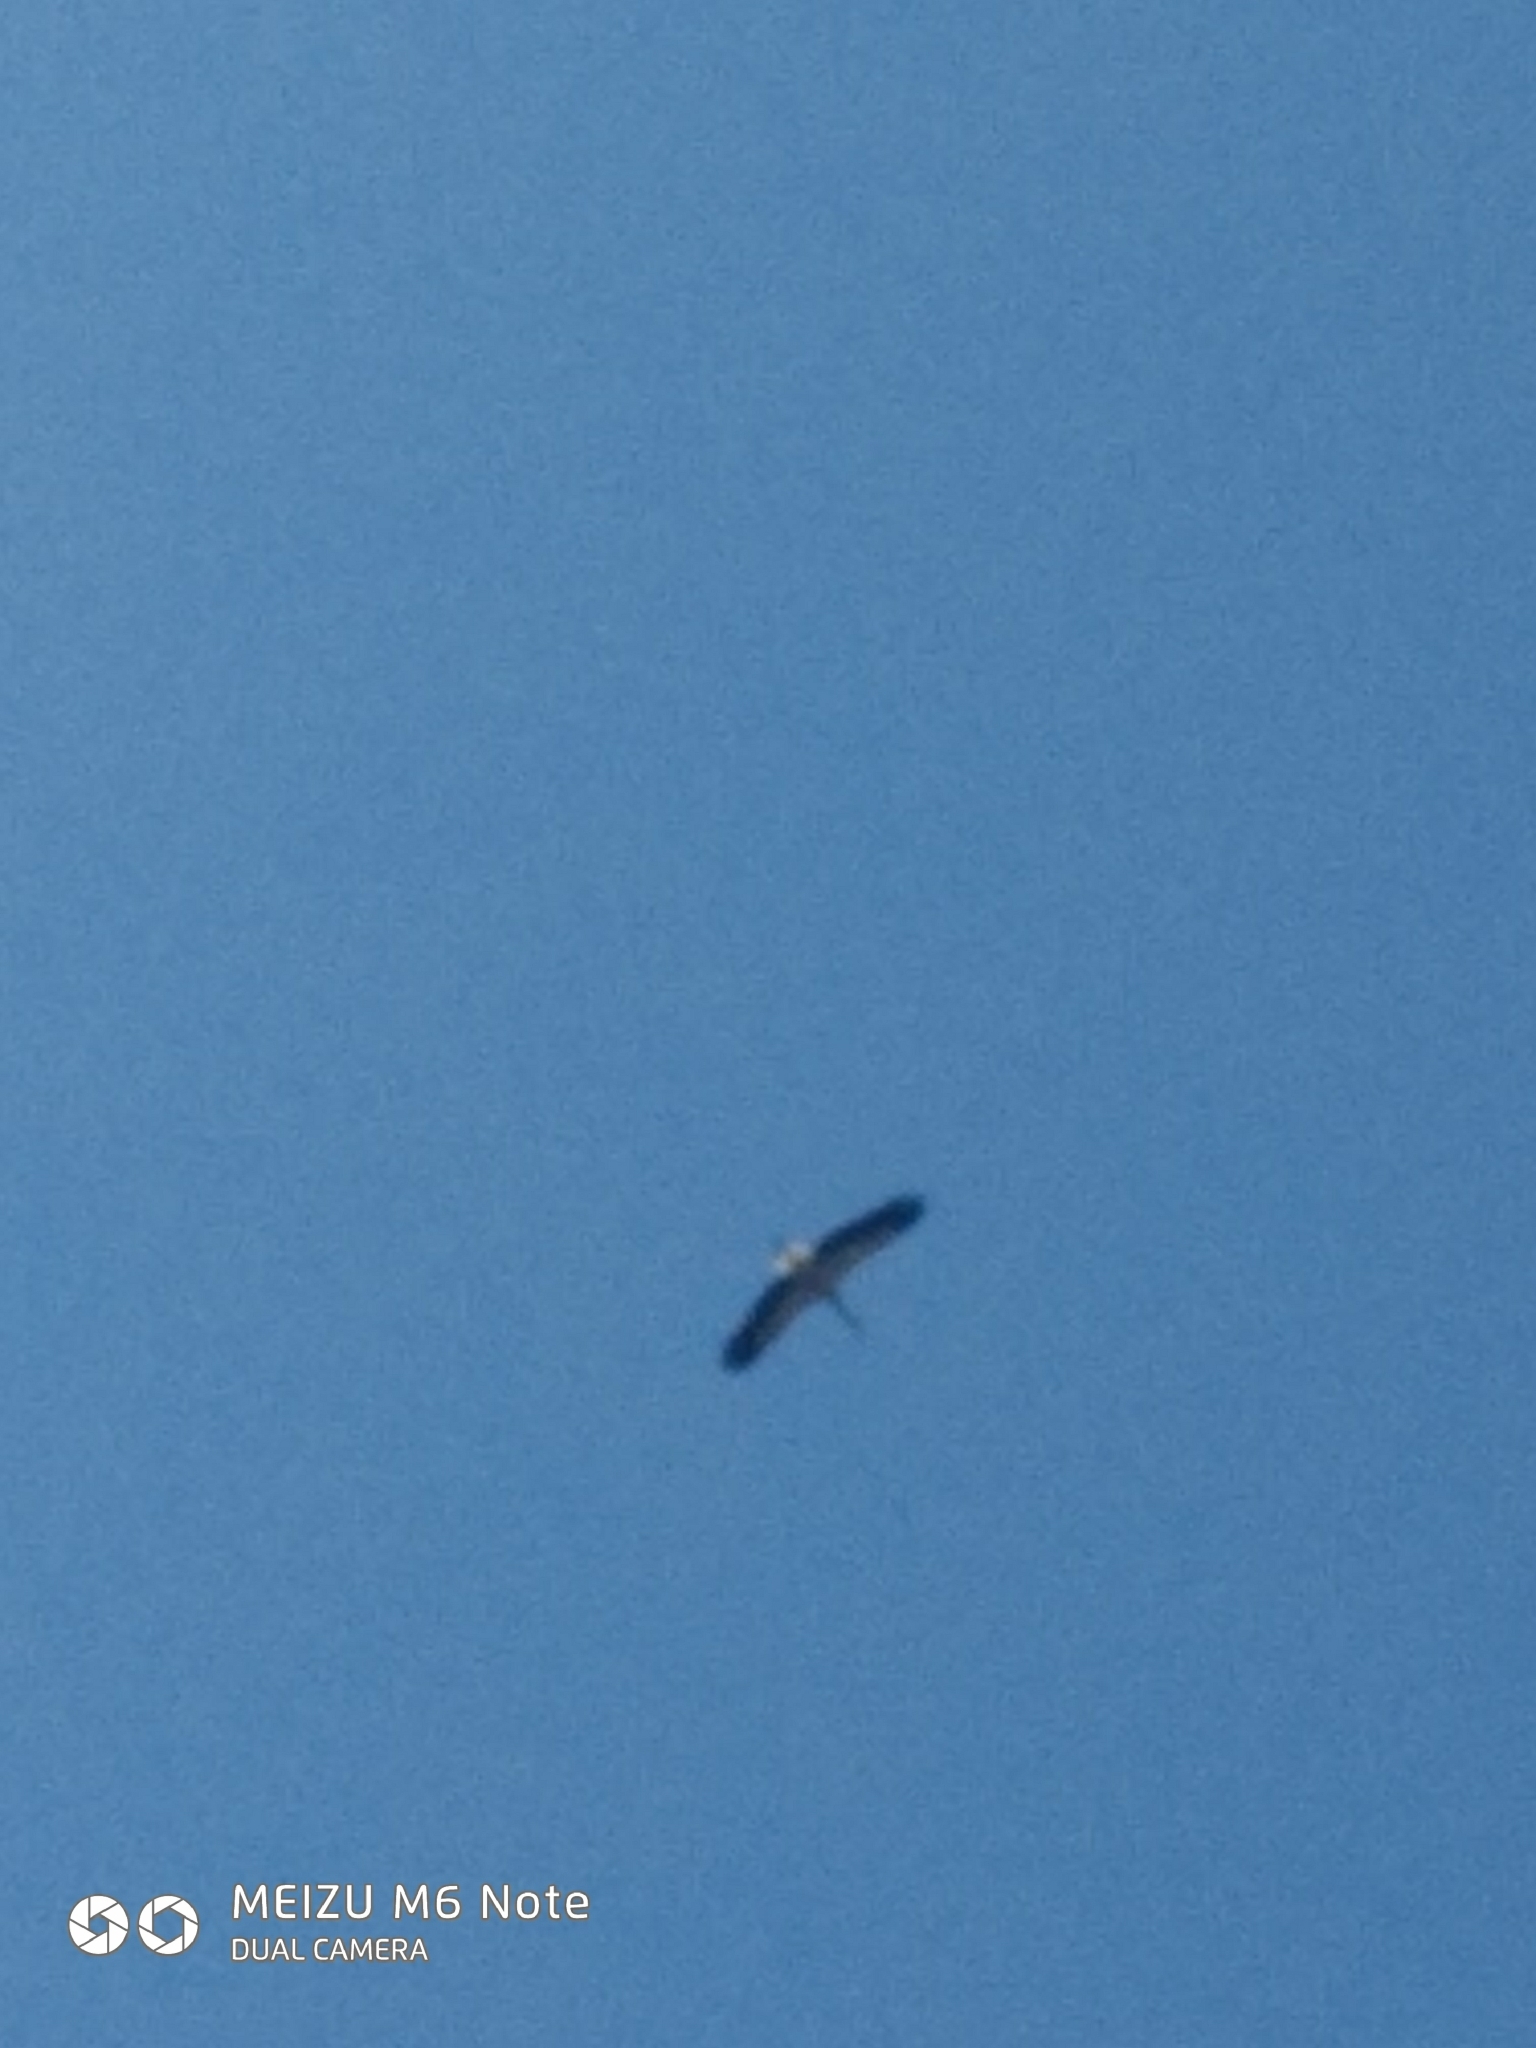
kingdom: Animalia
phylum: Chordata
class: Aves
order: Ciconiiformes
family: Ciconiidae
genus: Ciconia
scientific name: Ciconia ciconia
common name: White stork
